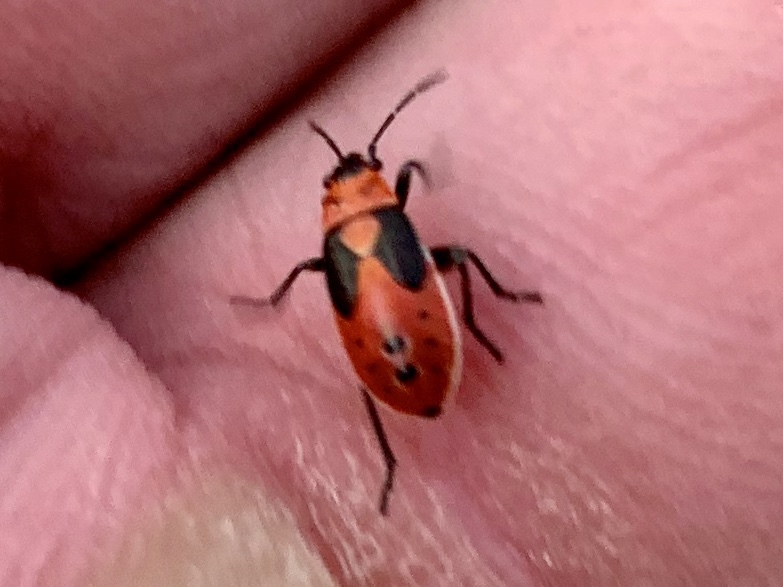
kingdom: Animalia
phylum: Arthropoda
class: Insecta
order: Hemiptera
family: Lygaeidae
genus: Lygaeus
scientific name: Lygaeus kalmii
